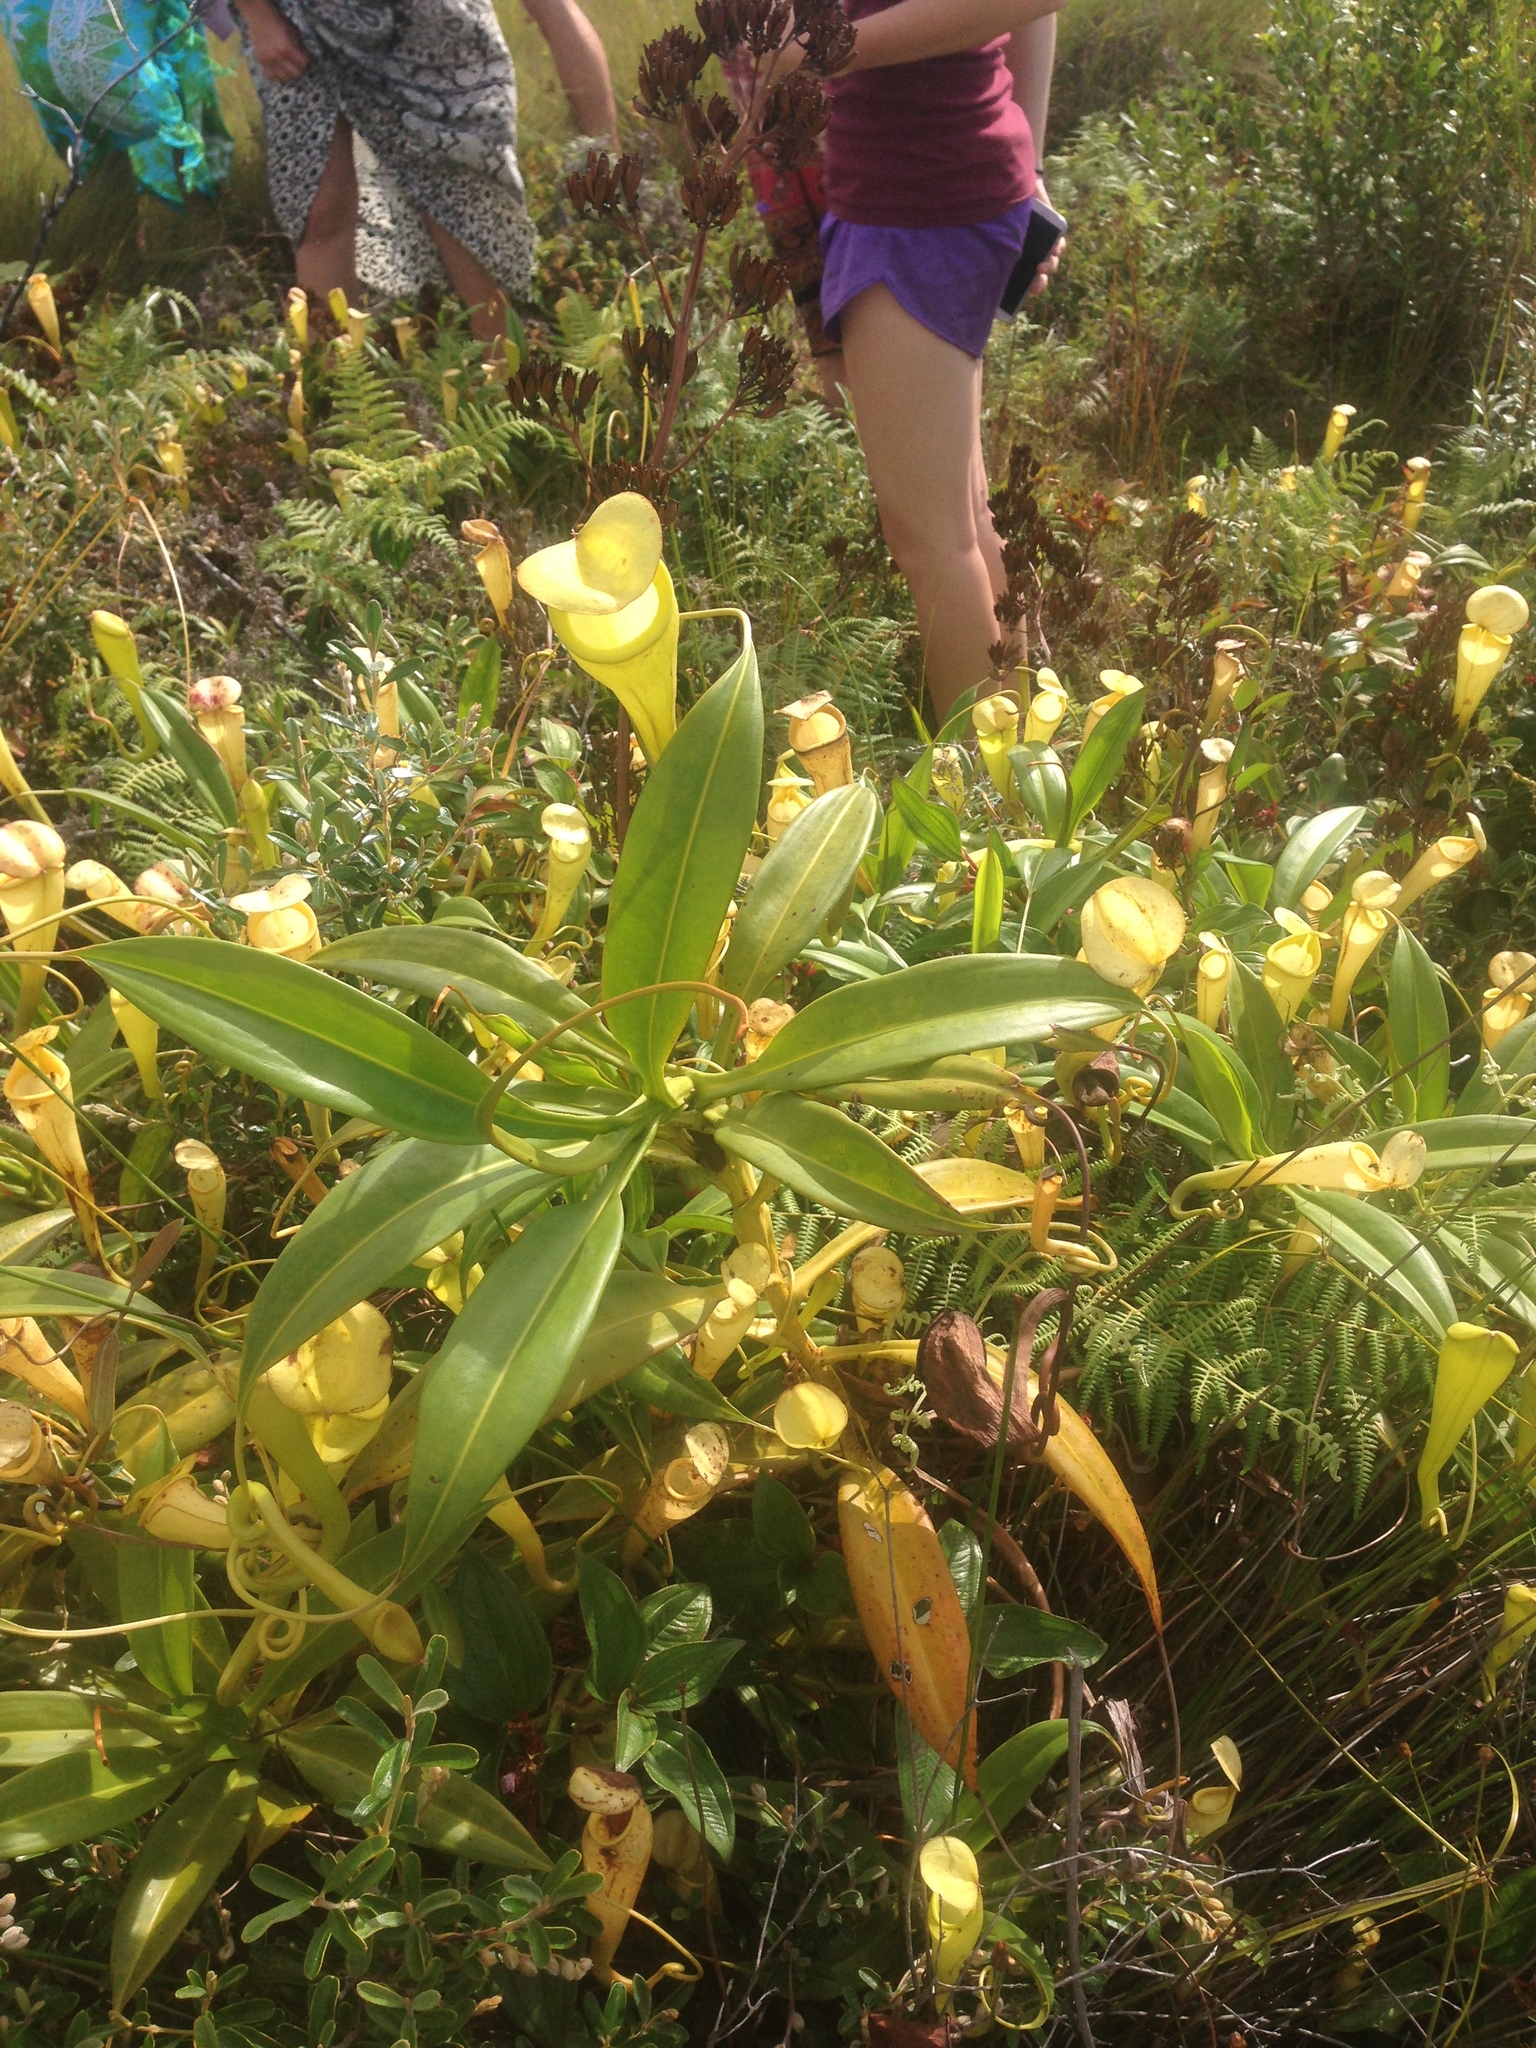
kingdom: Plantae
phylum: Tracheophyta
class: Magnoliopsida
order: Caryophyllales
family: Nepenthaceae
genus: Nepenthes
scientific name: Nepenthes madagascariensis
